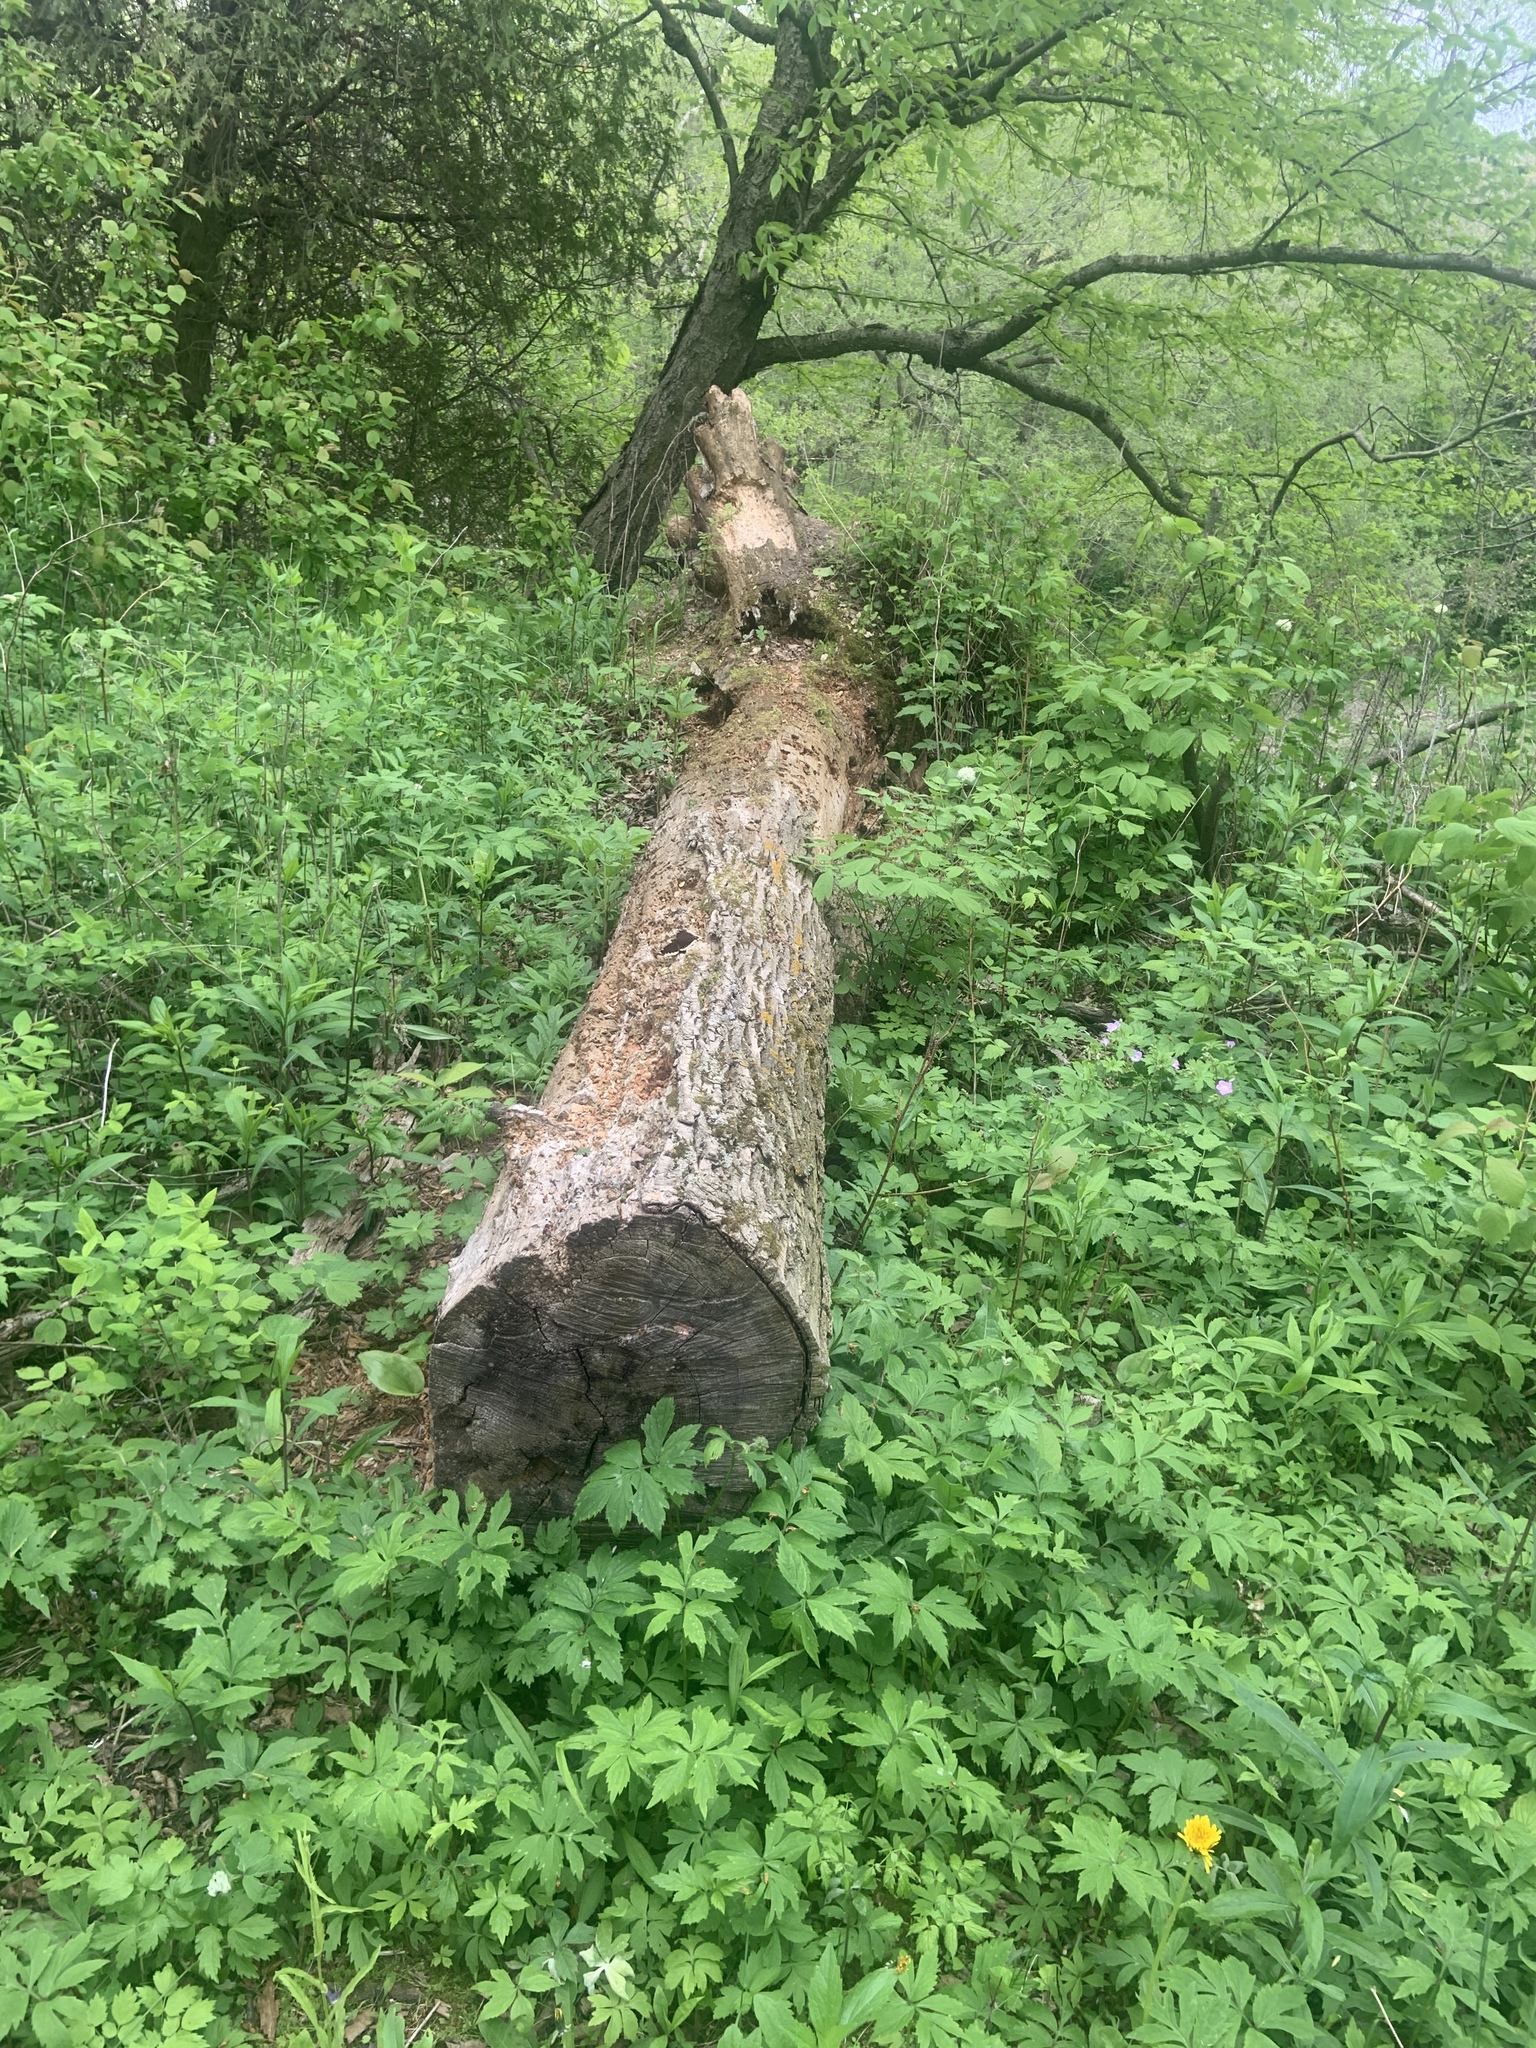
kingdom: Animalia
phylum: Arthropoda
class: Insecta
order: Lepidoptera
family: Nymphalidae
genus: Nymphalis
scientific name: Nymphalis antiopa
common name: Camberwell beauty
